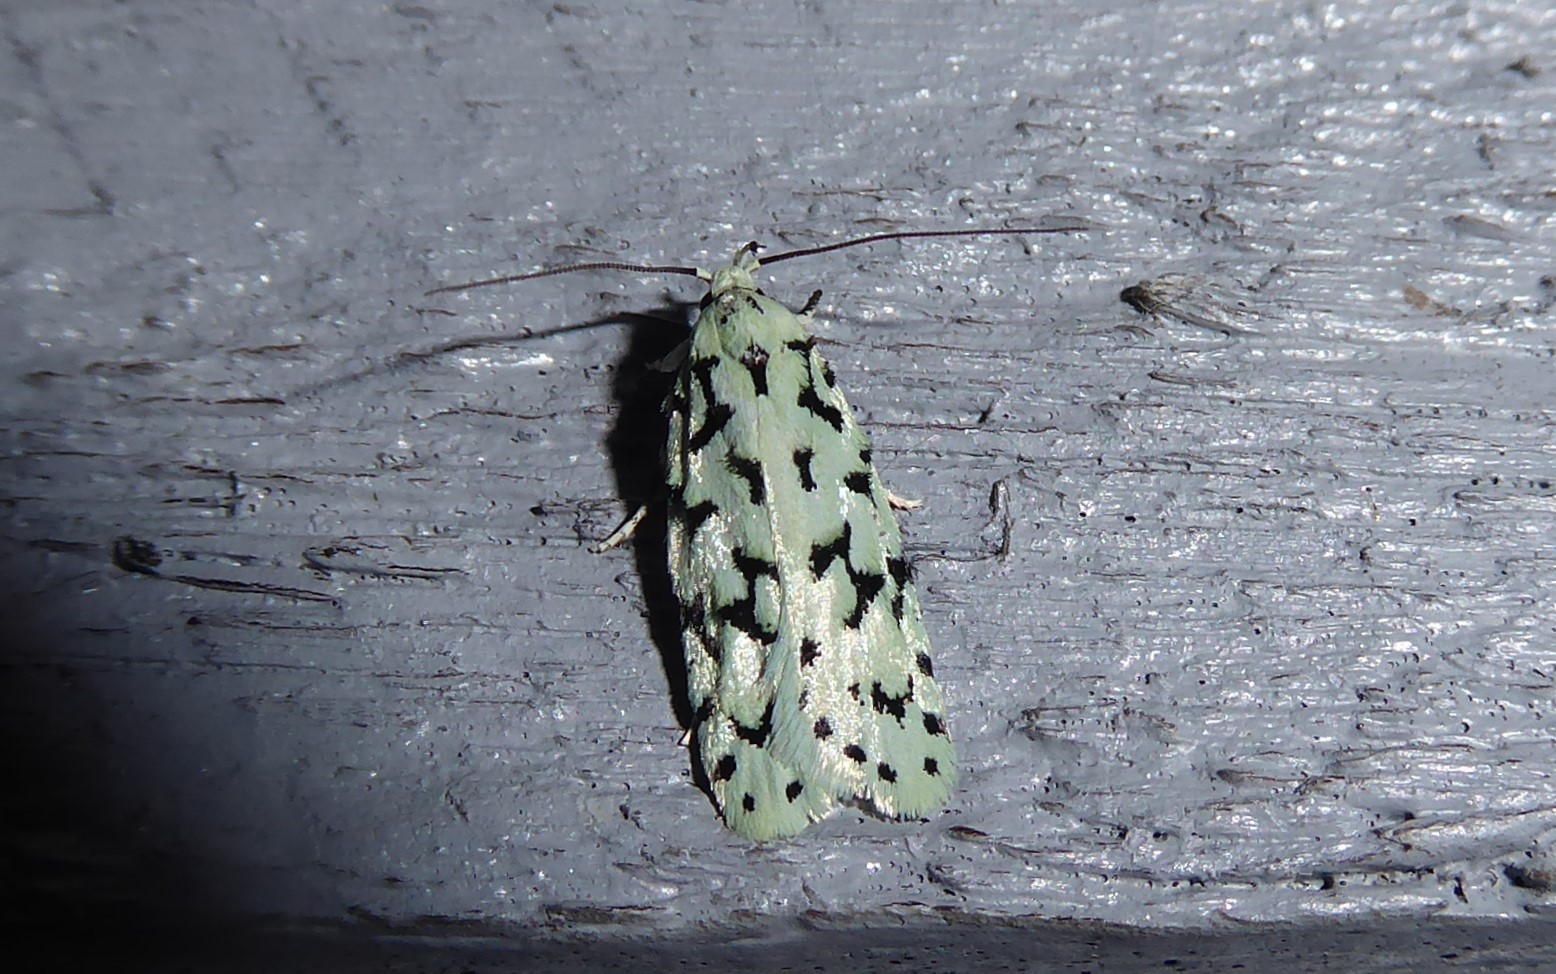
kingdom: Animalia
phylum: Arthropoda
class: Insecta
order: Lepidoptera
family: Oecophoridae
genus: Izatha
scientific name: Izatha huttoni
